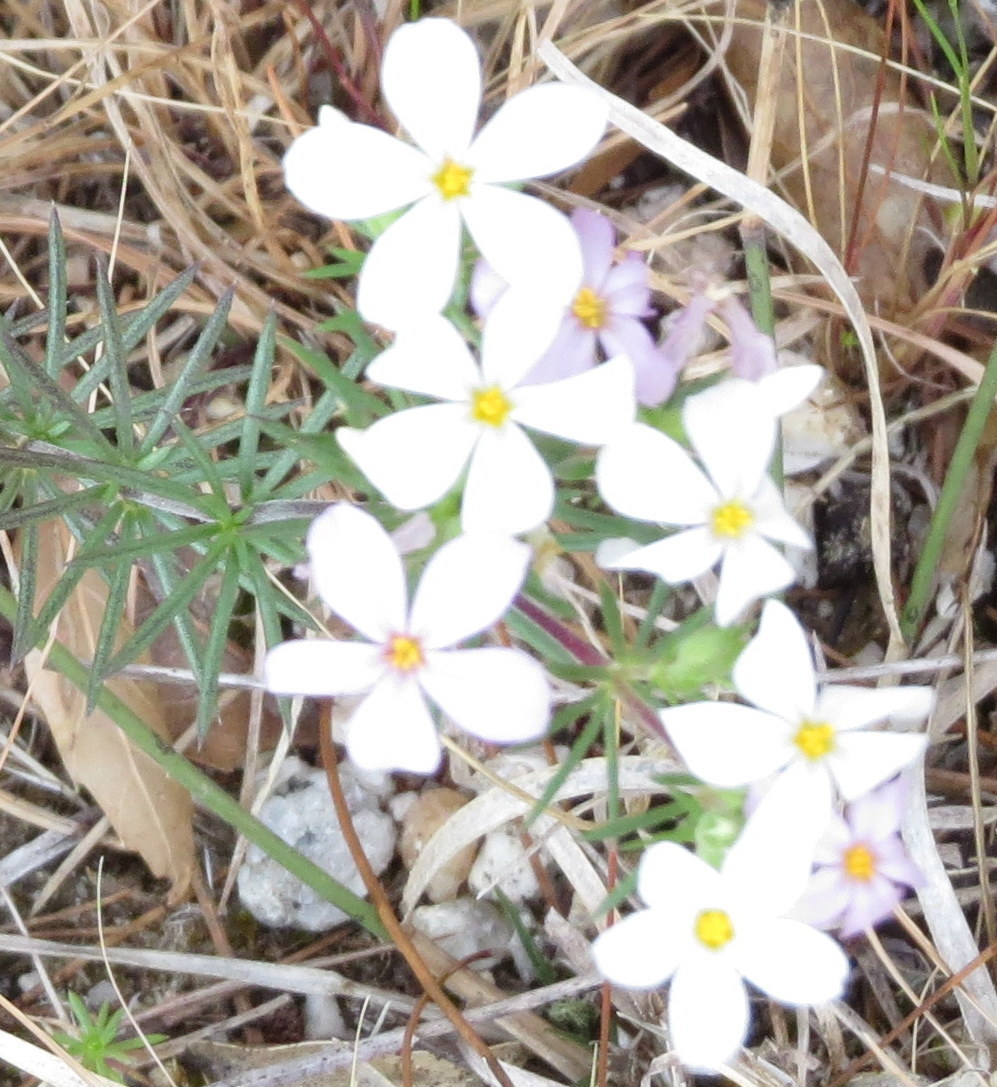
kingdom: Plantae
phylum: Tracheophyta
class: Magnoliopsida
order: Ericales
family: Polemoniaceae
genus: Leptosiphon
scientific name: Leptosiphon nuttallii
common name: Nuttall's linanthus
